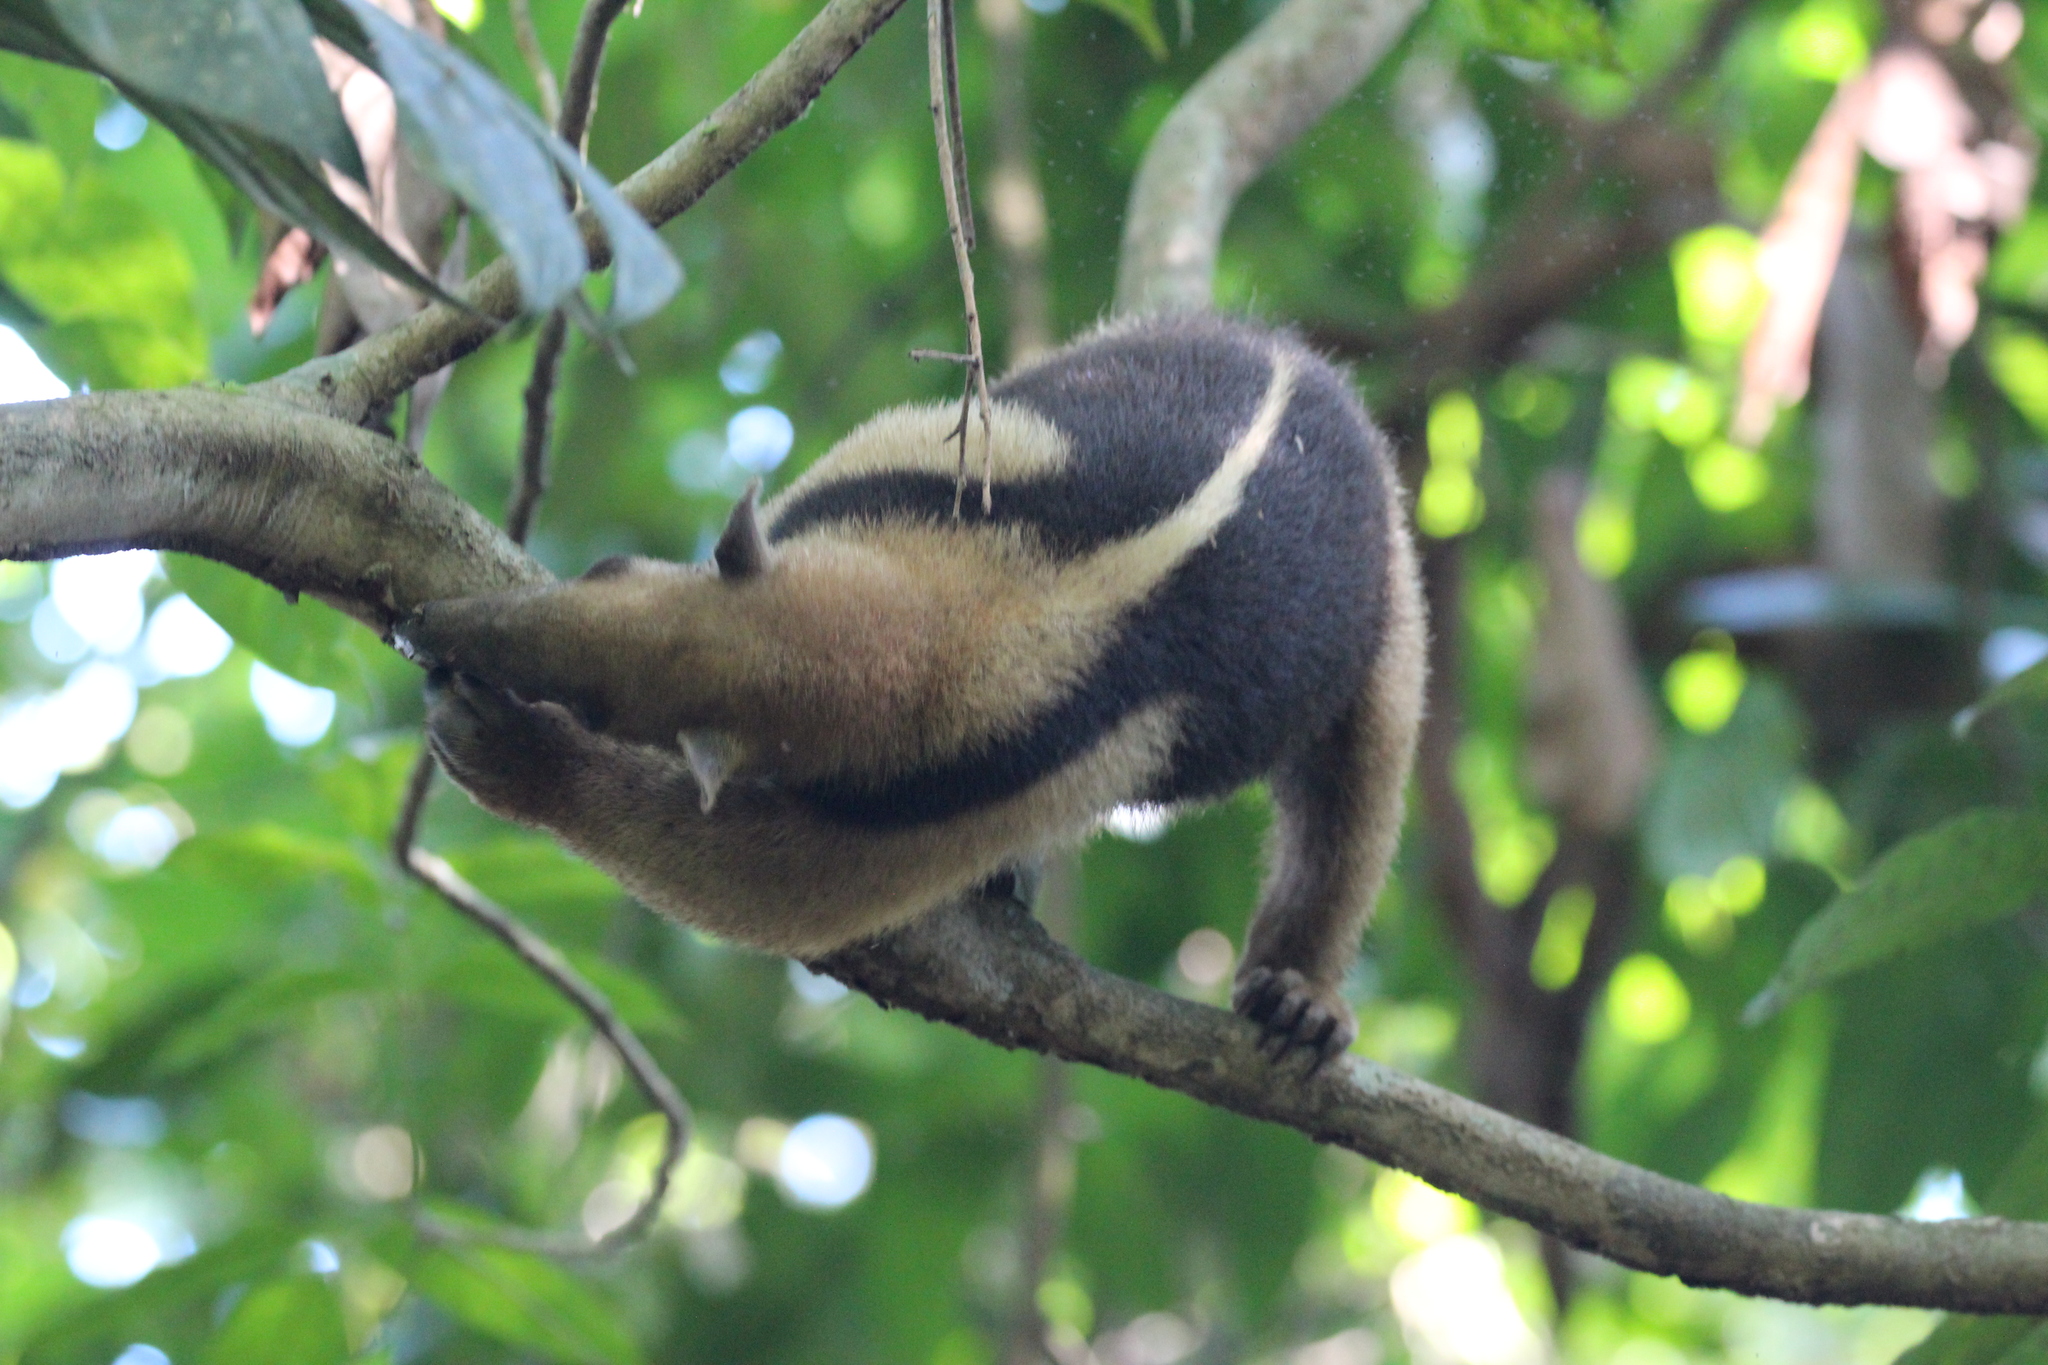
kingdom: Animalia
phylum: Chordata
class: Mammalia
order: Pilosa
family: Myrmecophagidae
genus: Tamandua
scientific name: Tamandua mexicana
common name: Northern tamandua
